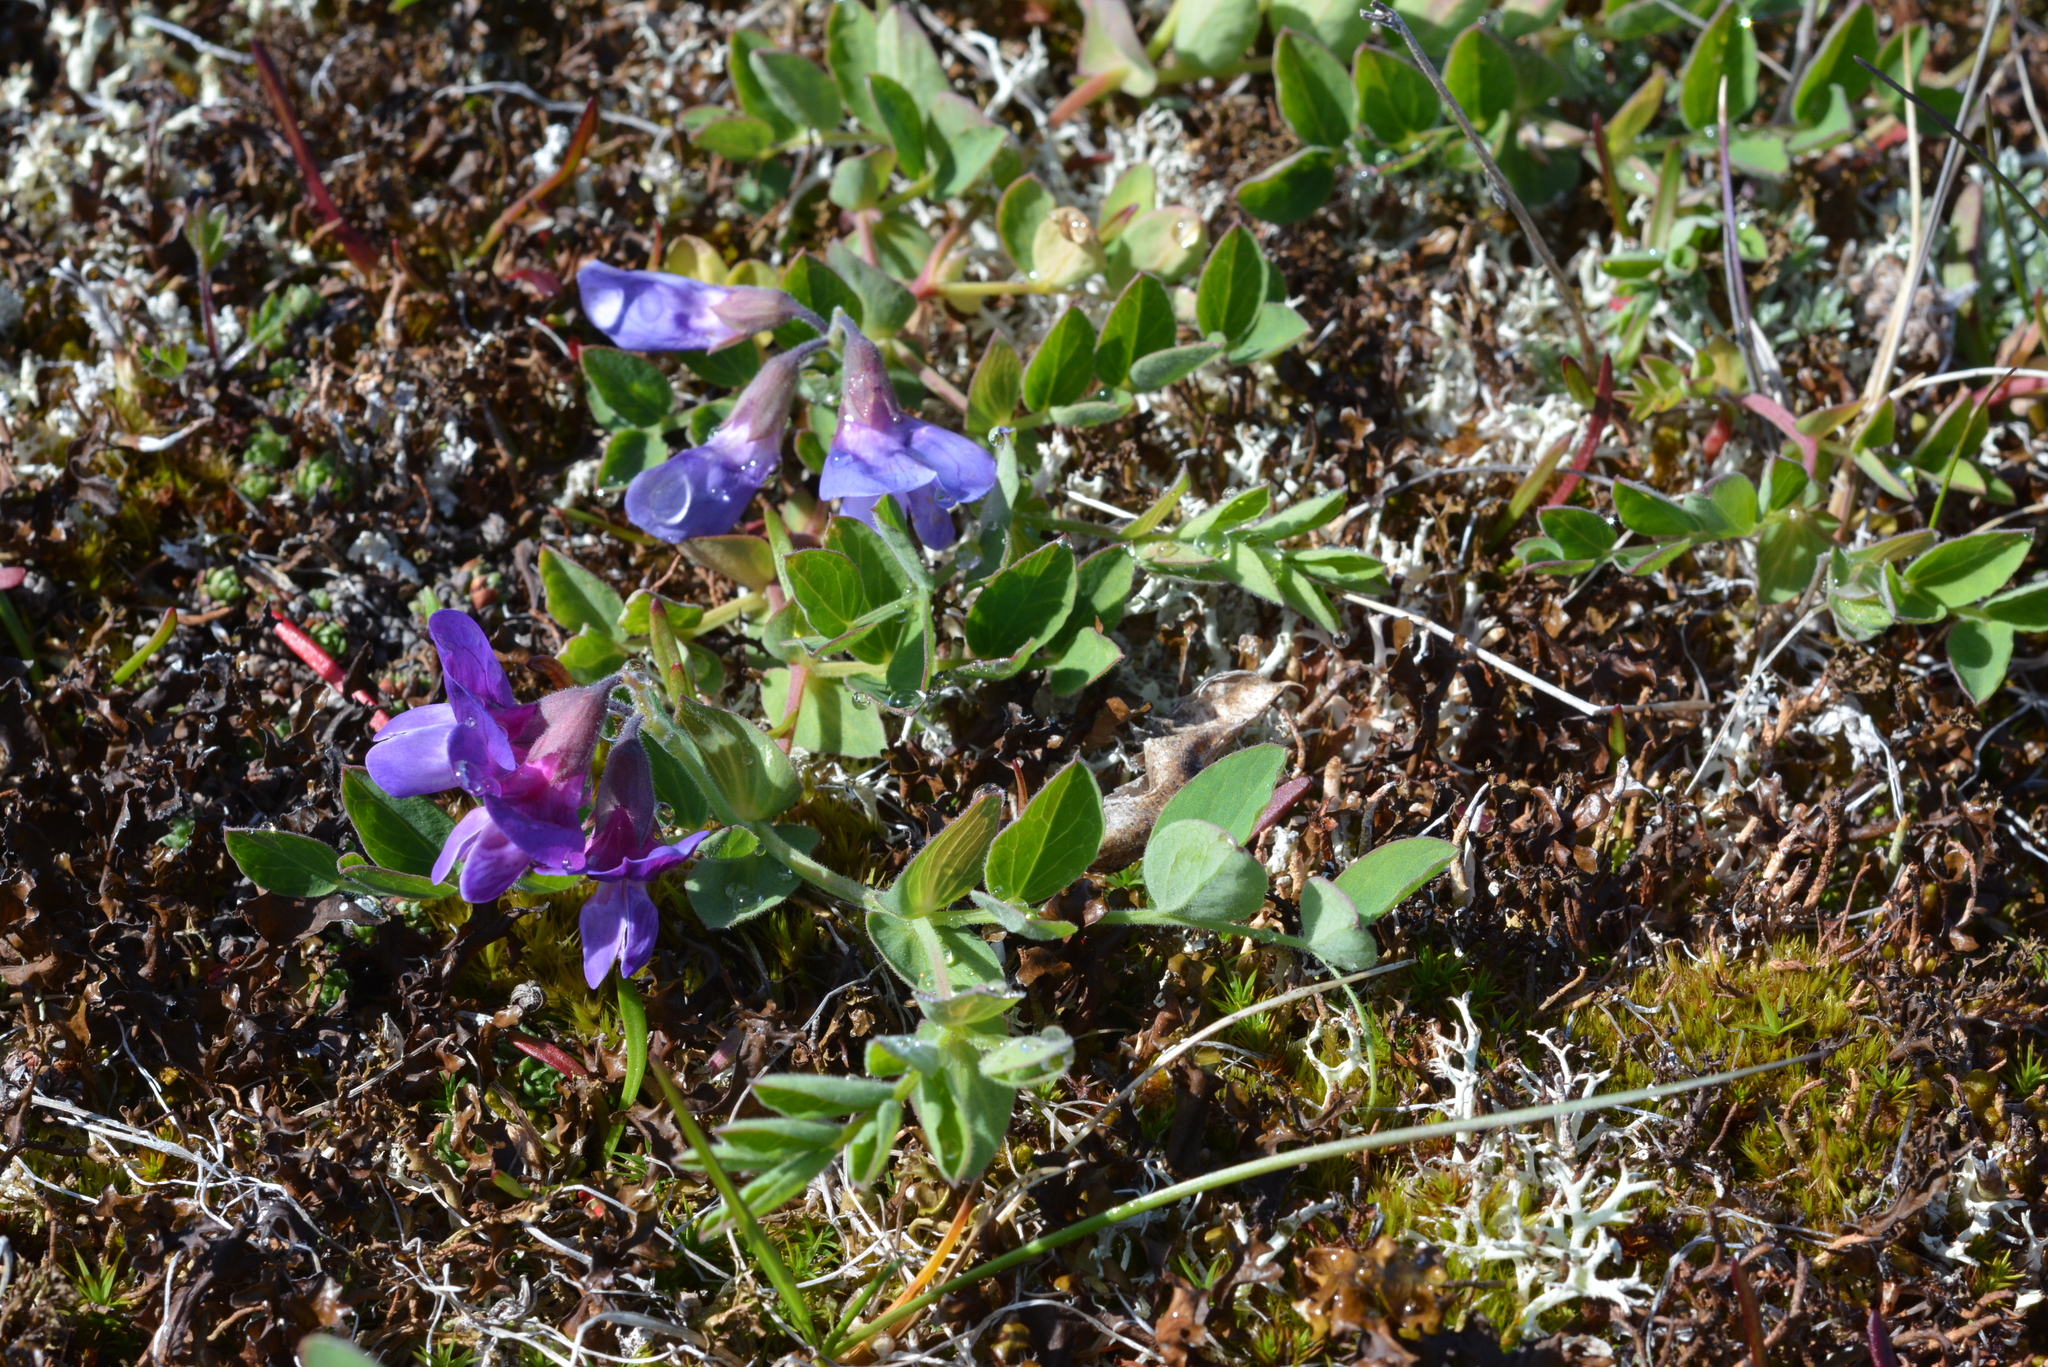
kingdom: Plantae
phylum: Tracheophyta
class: Magnoliopsida
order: Fabales
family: Fabaceae
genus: Lathyrus
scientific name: Lathyrus japonicus
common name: Sea pea
